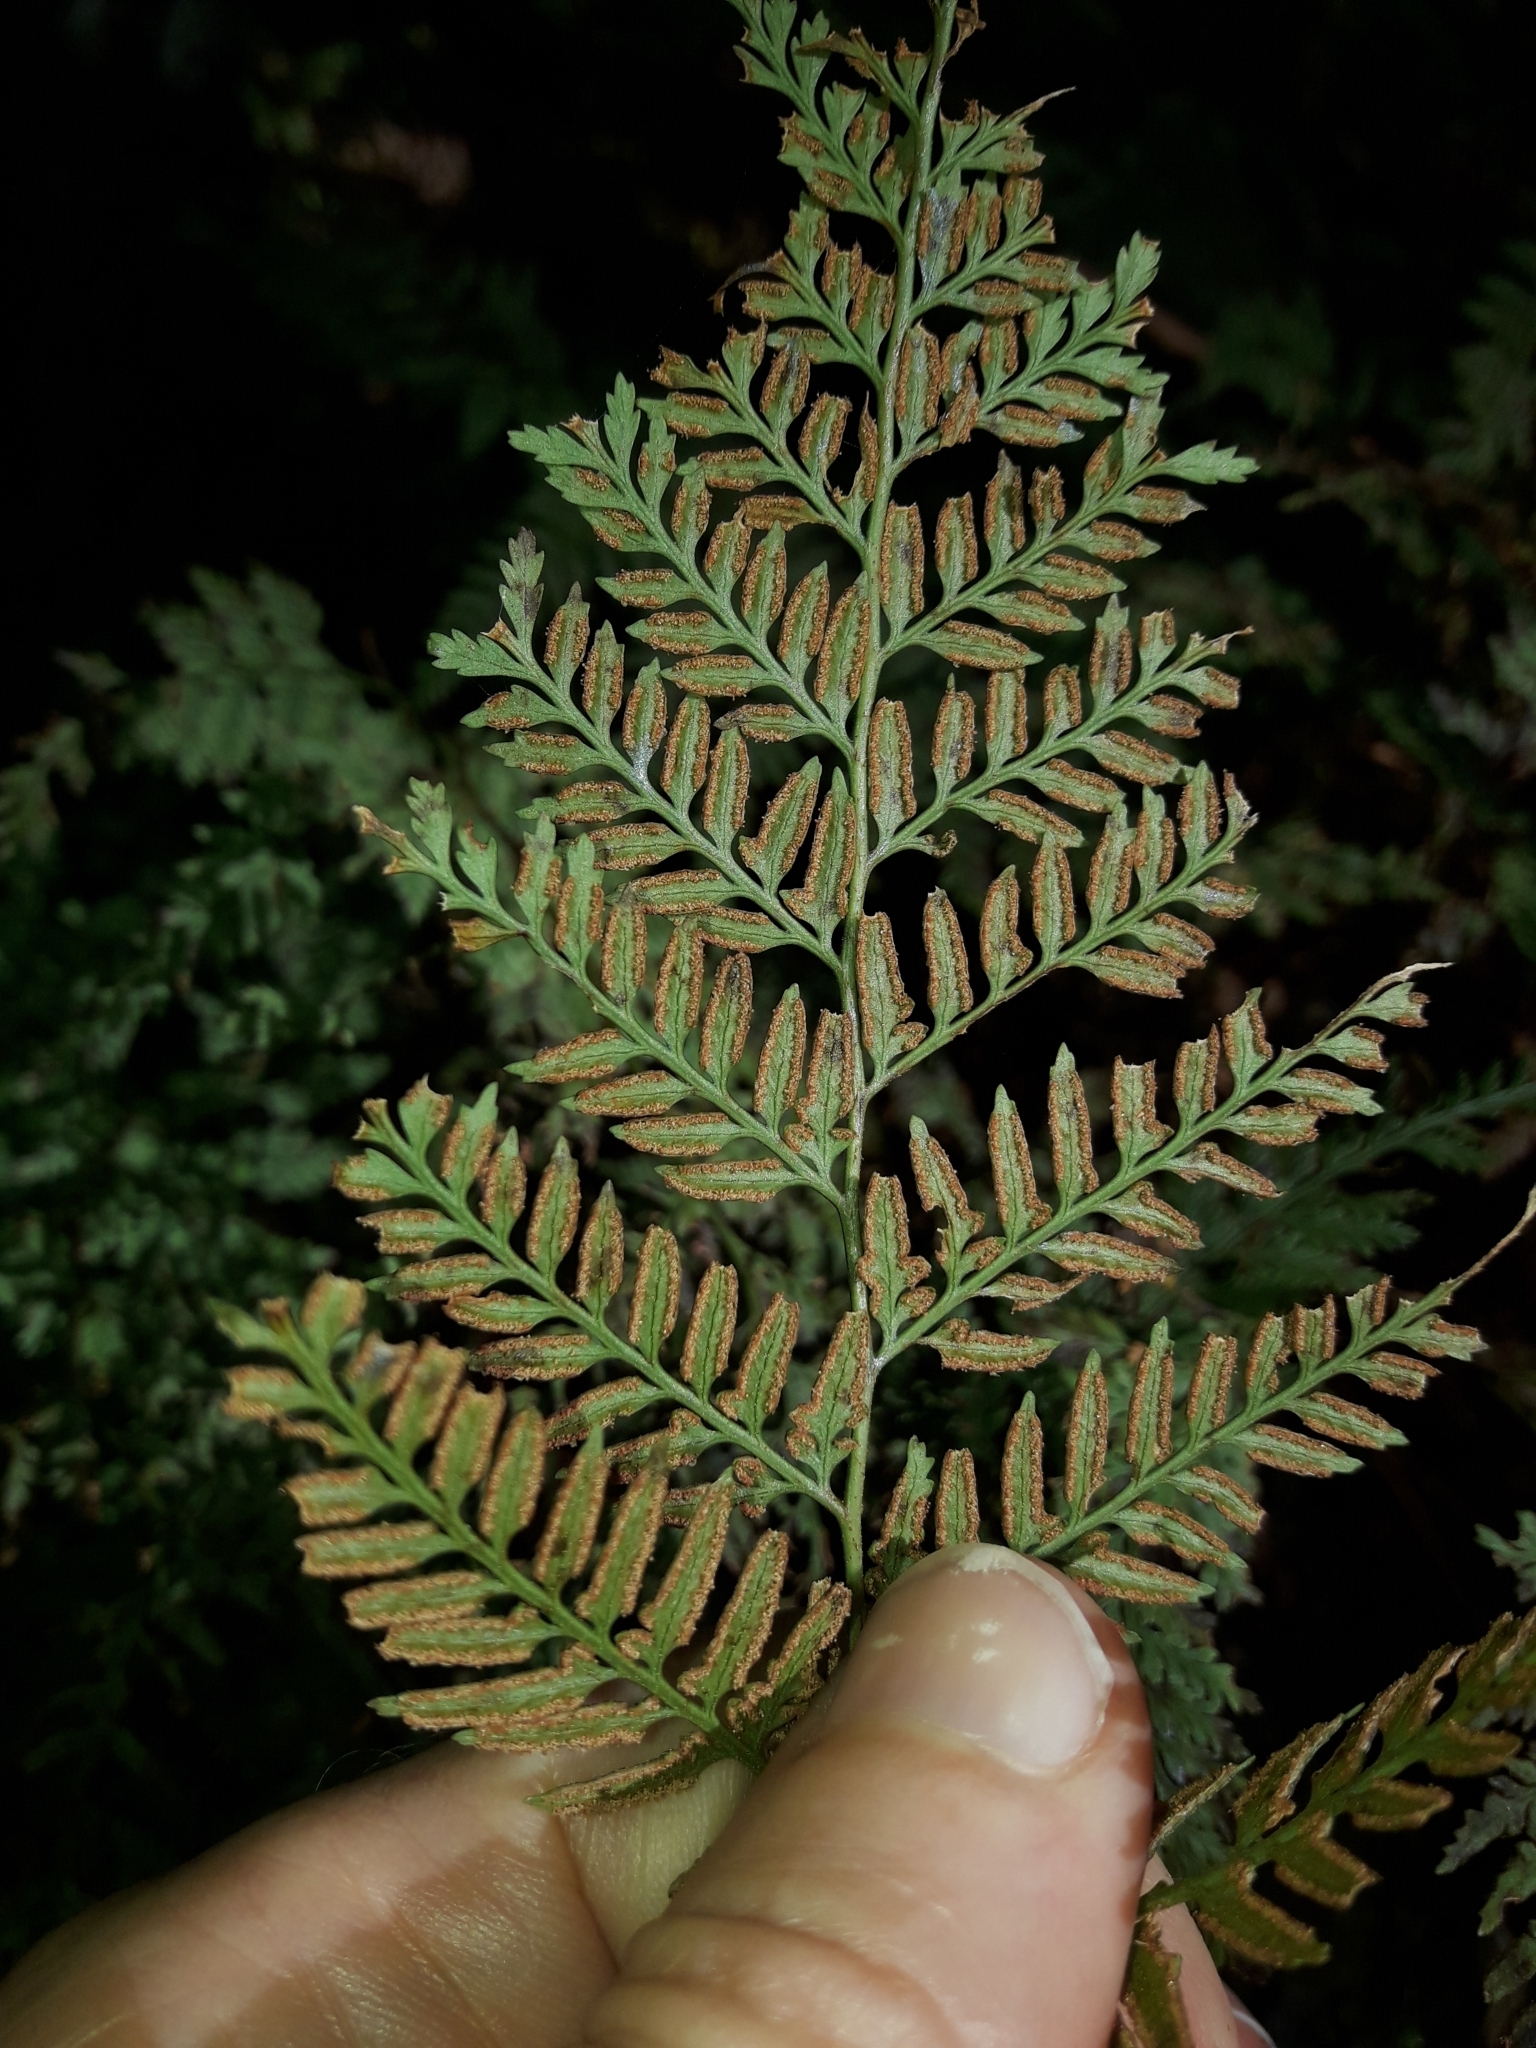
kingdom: Plantae
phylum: Tracheophyta
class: Polypodiopsida
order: Polypodiales
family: Dennstaedtiaceae
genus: Paesia
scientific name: Paesia scaberula
